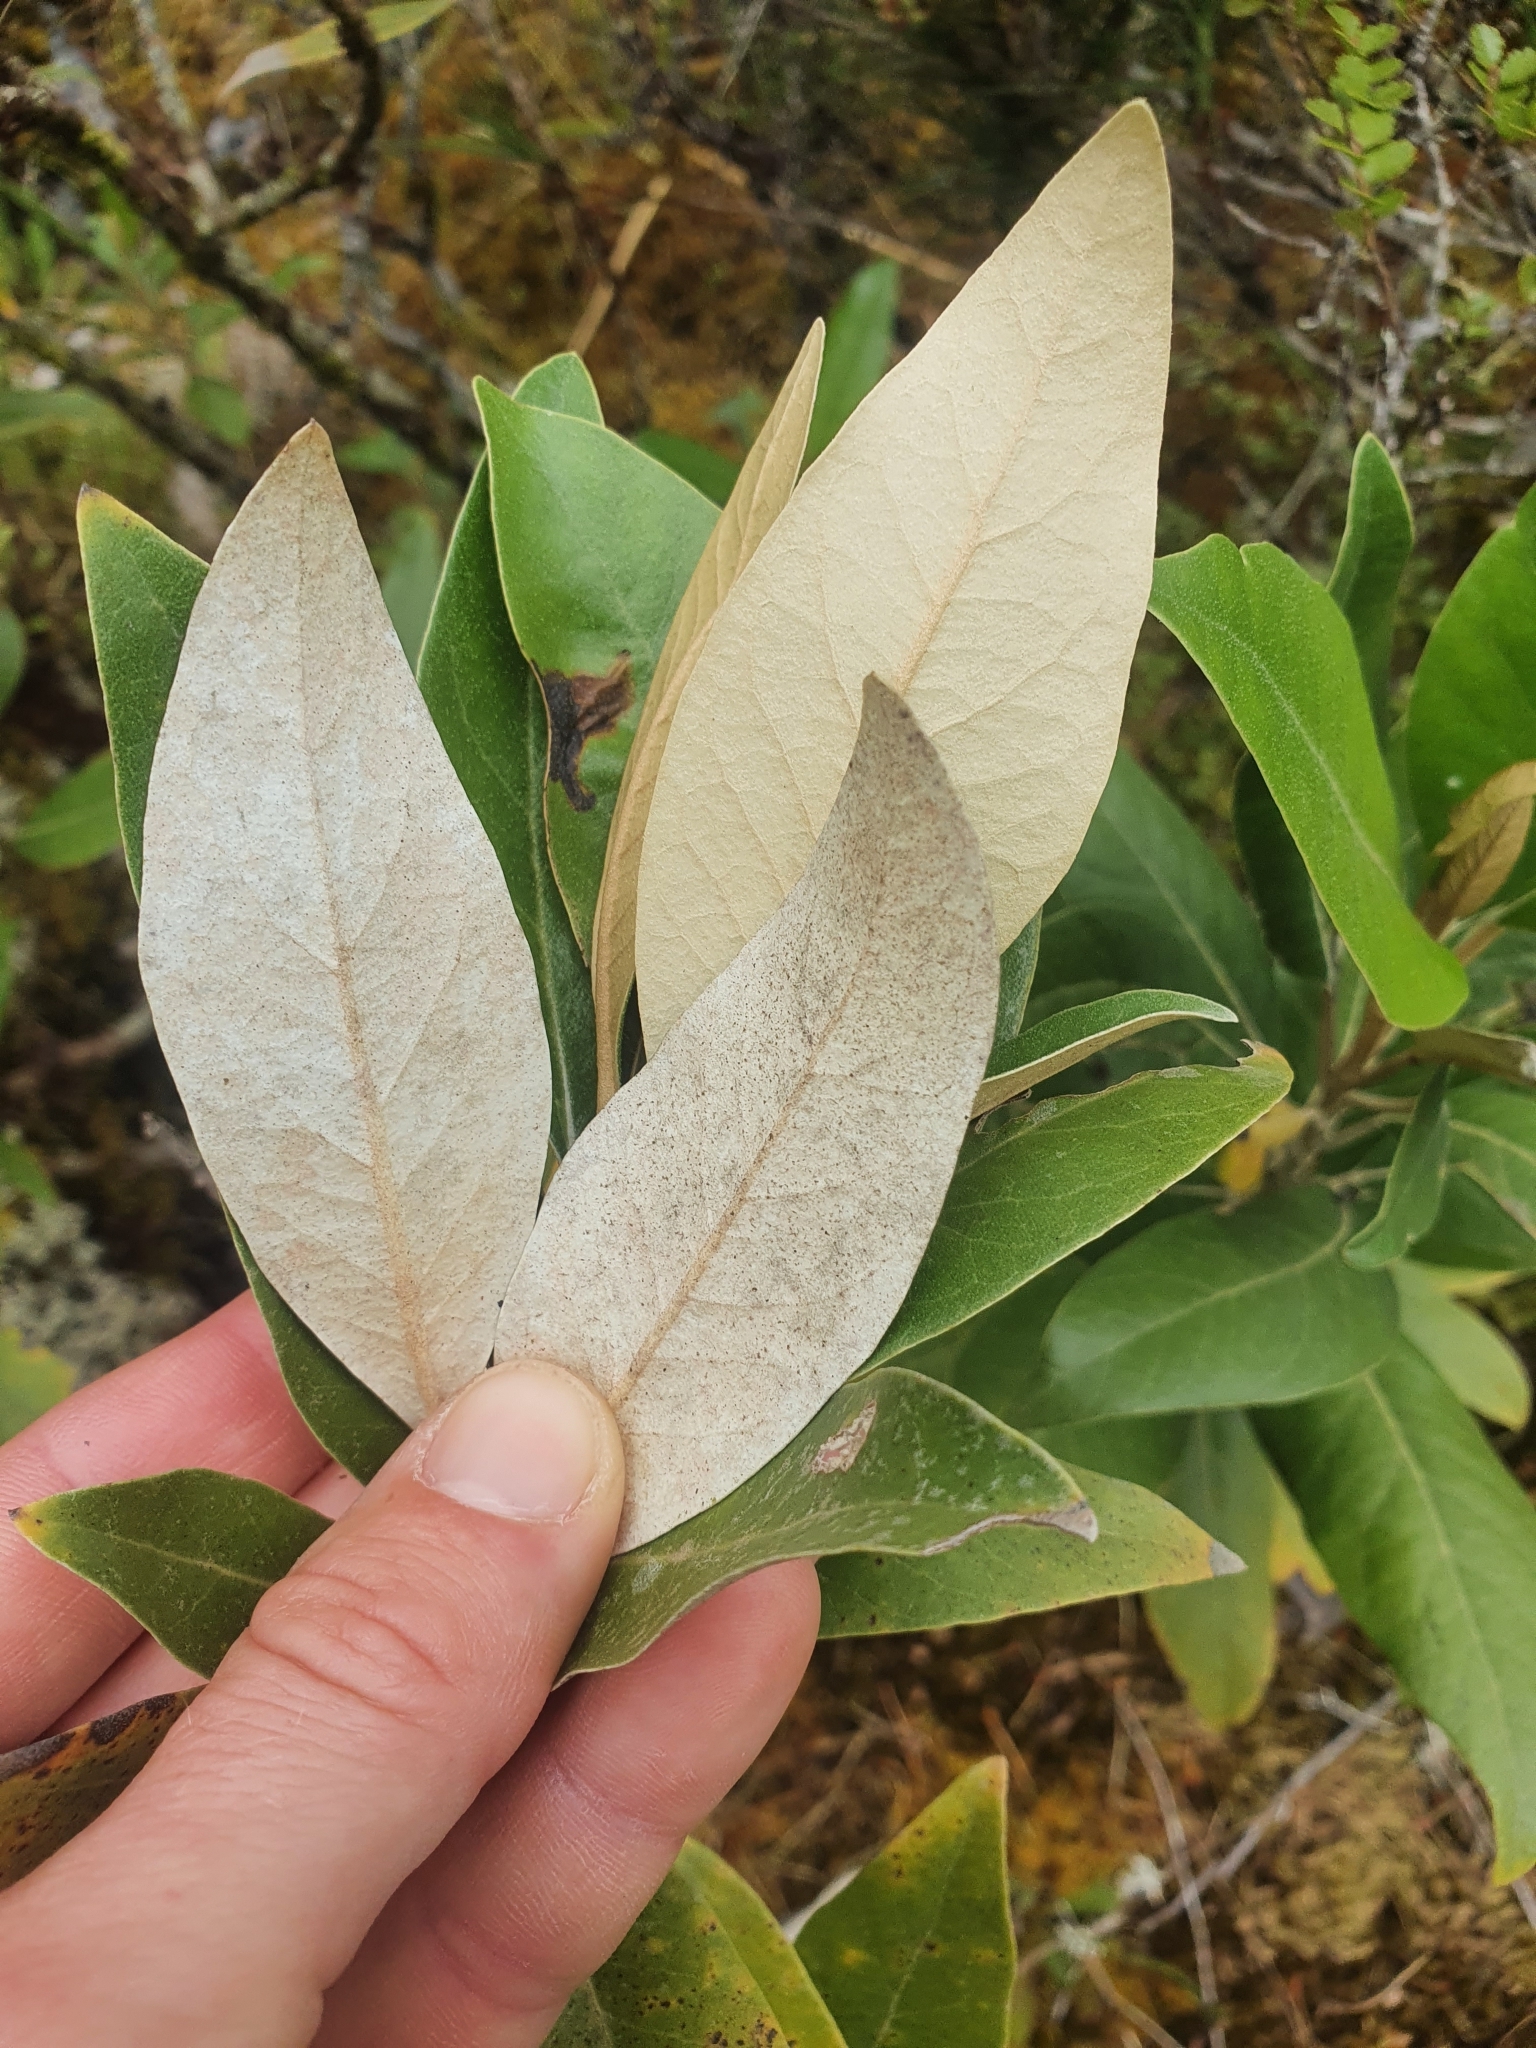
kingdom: Plantae
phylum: Tracheophyta
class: Magnoliopsida
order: Asterales
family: Asteraceae
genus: Olearia
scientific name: Olearia avicenniifolia
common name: Mangrove-leaf daisybush
